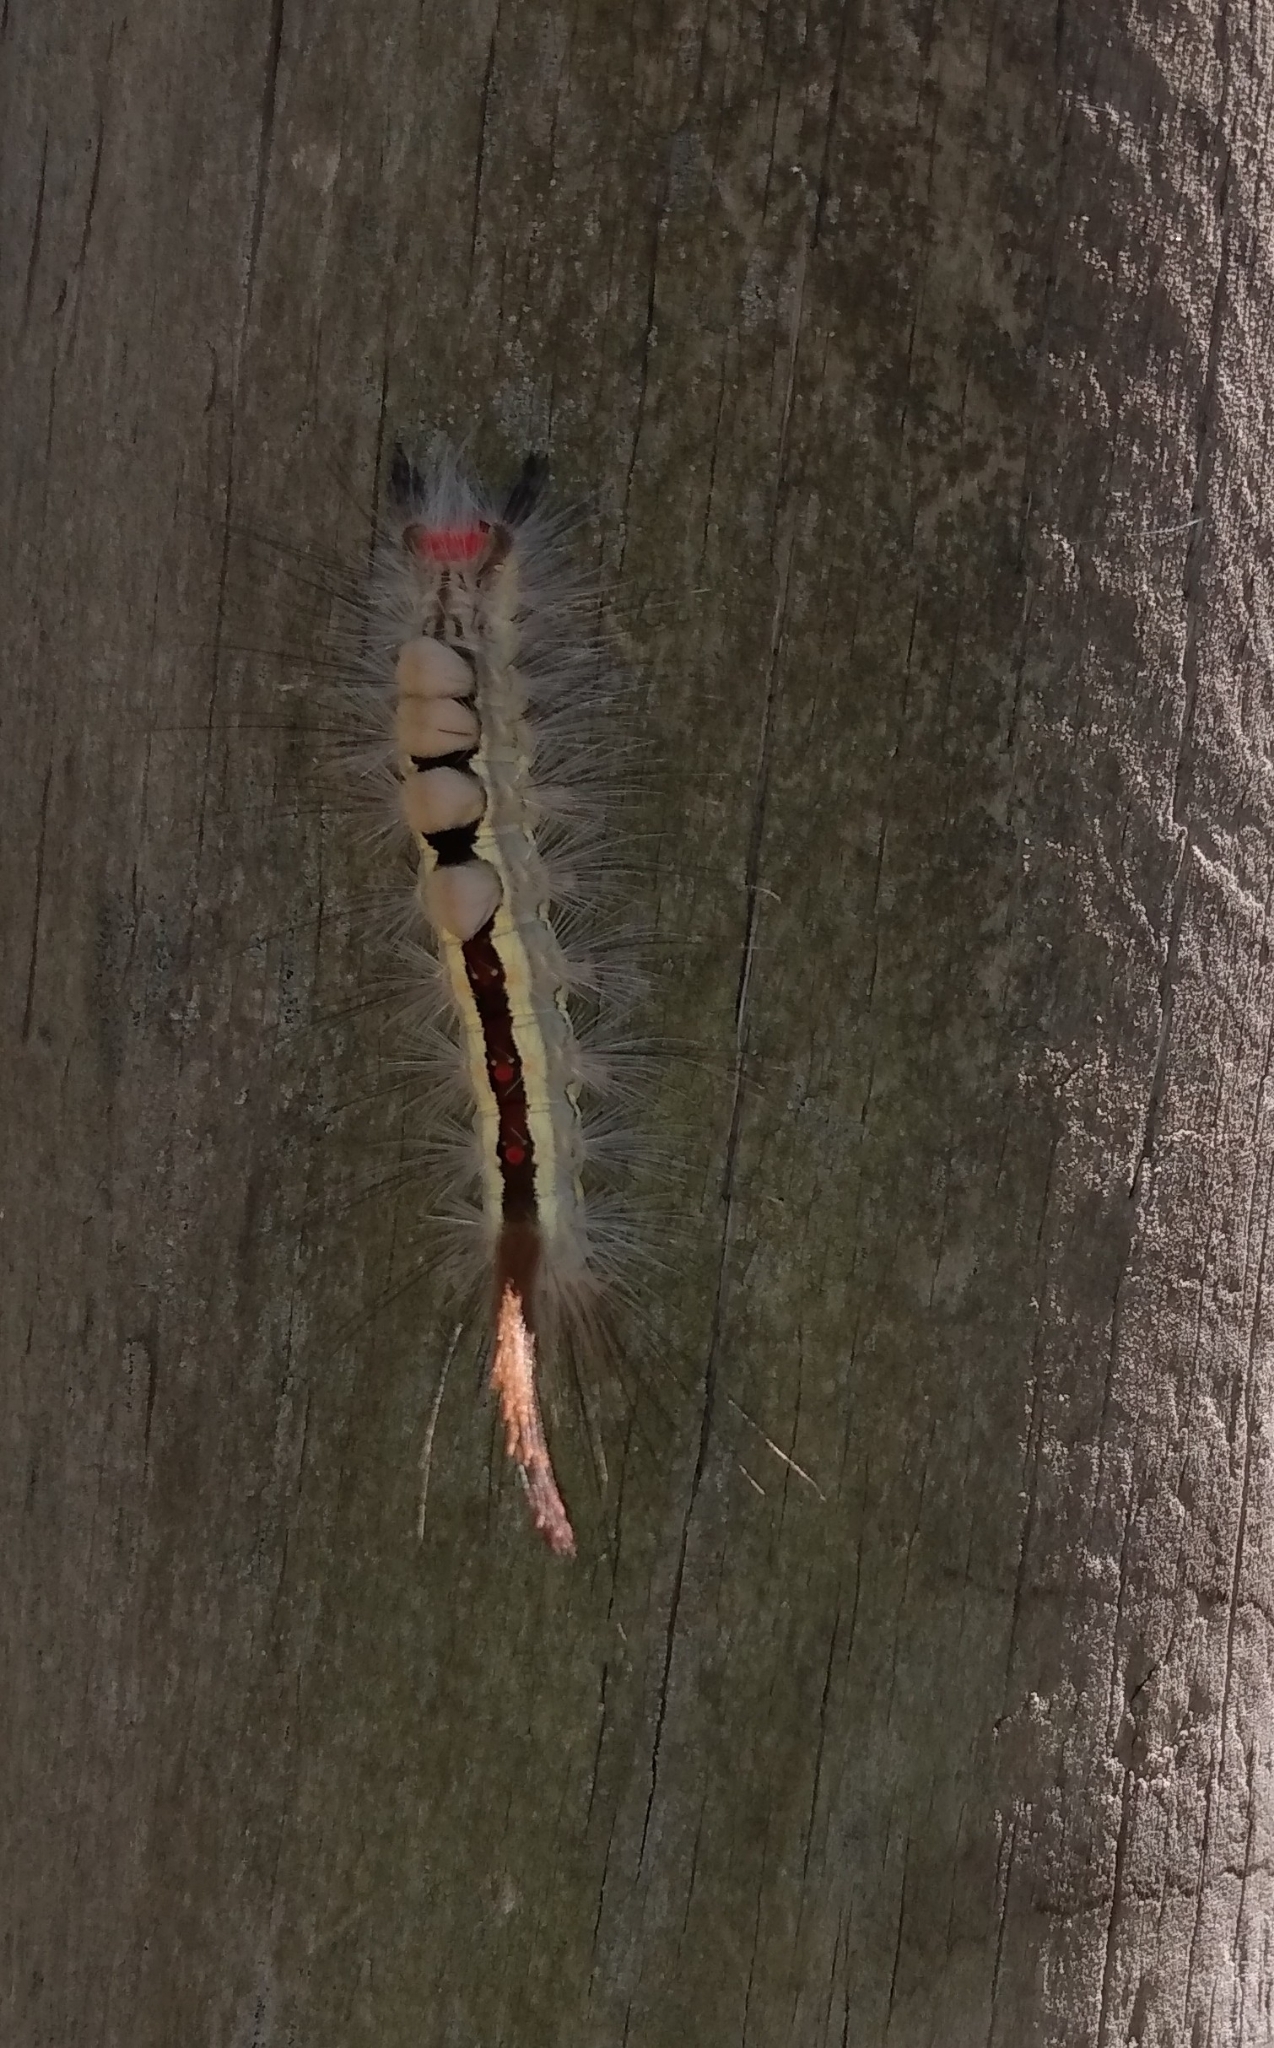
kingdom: Animalia
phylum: Arthropoda
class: Insecta
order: Lepidoptera
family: Erebidae
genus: Orgyia
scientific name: Orgyia leucostigma
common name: White-marked tussock moth
